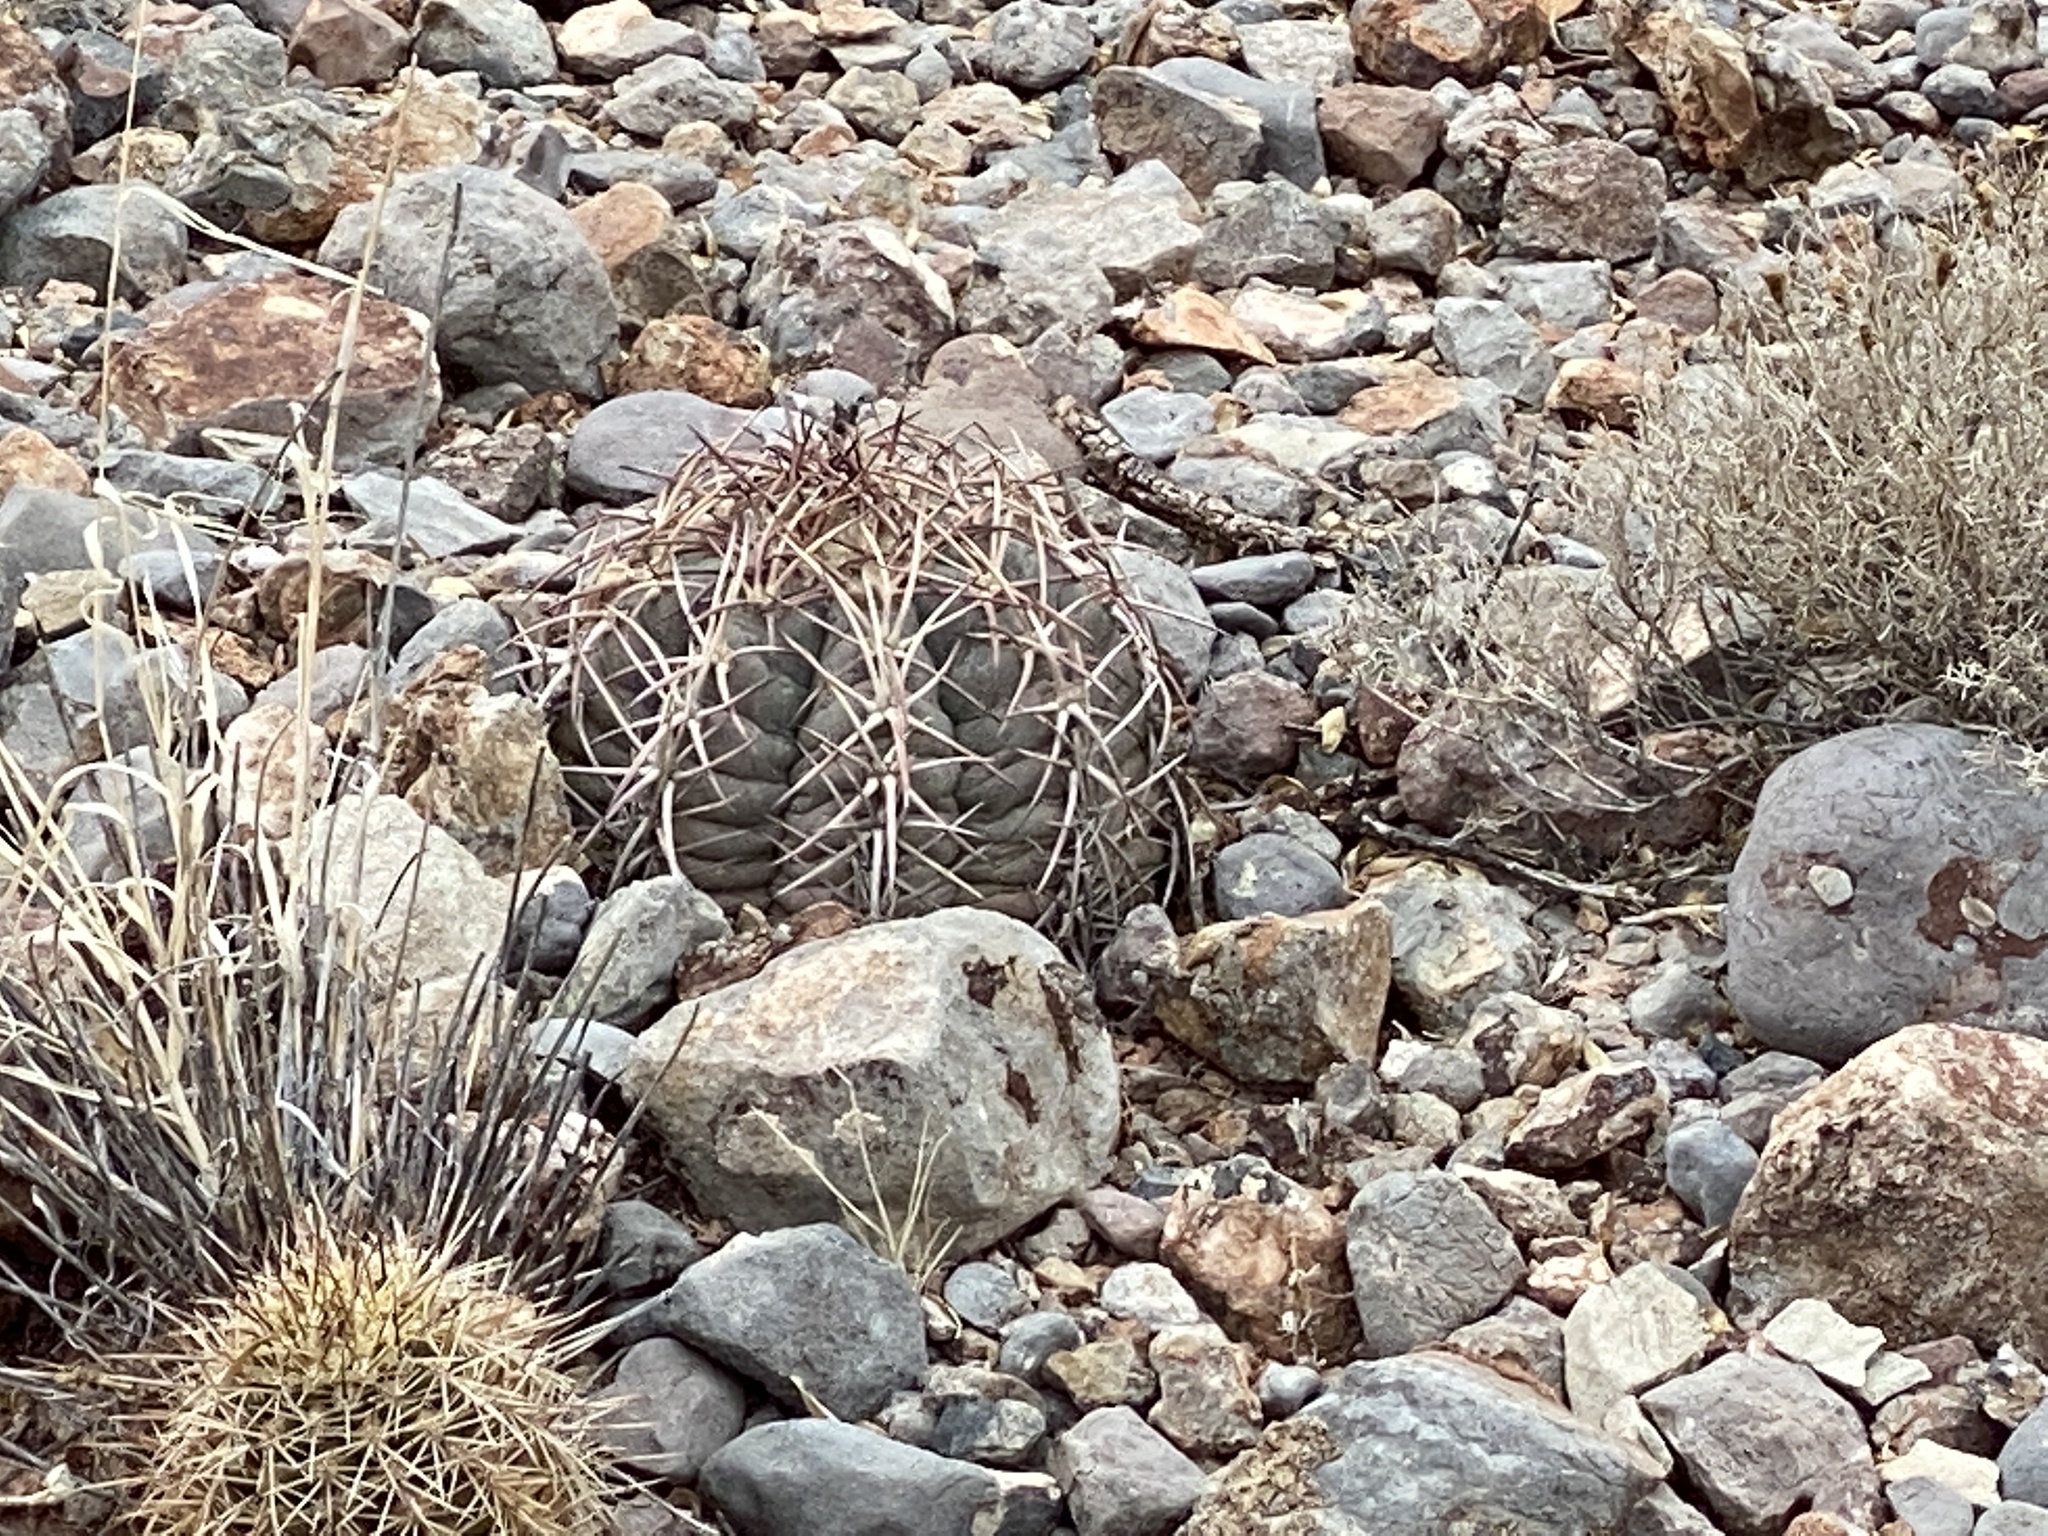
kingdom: Plantae
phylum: Tracheophyta
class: Magnoliopsida
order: Caryophyllales
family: Cactaceae
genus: Echinocactus
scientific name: Echinocactus horizonthalonius
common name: Devilshead
